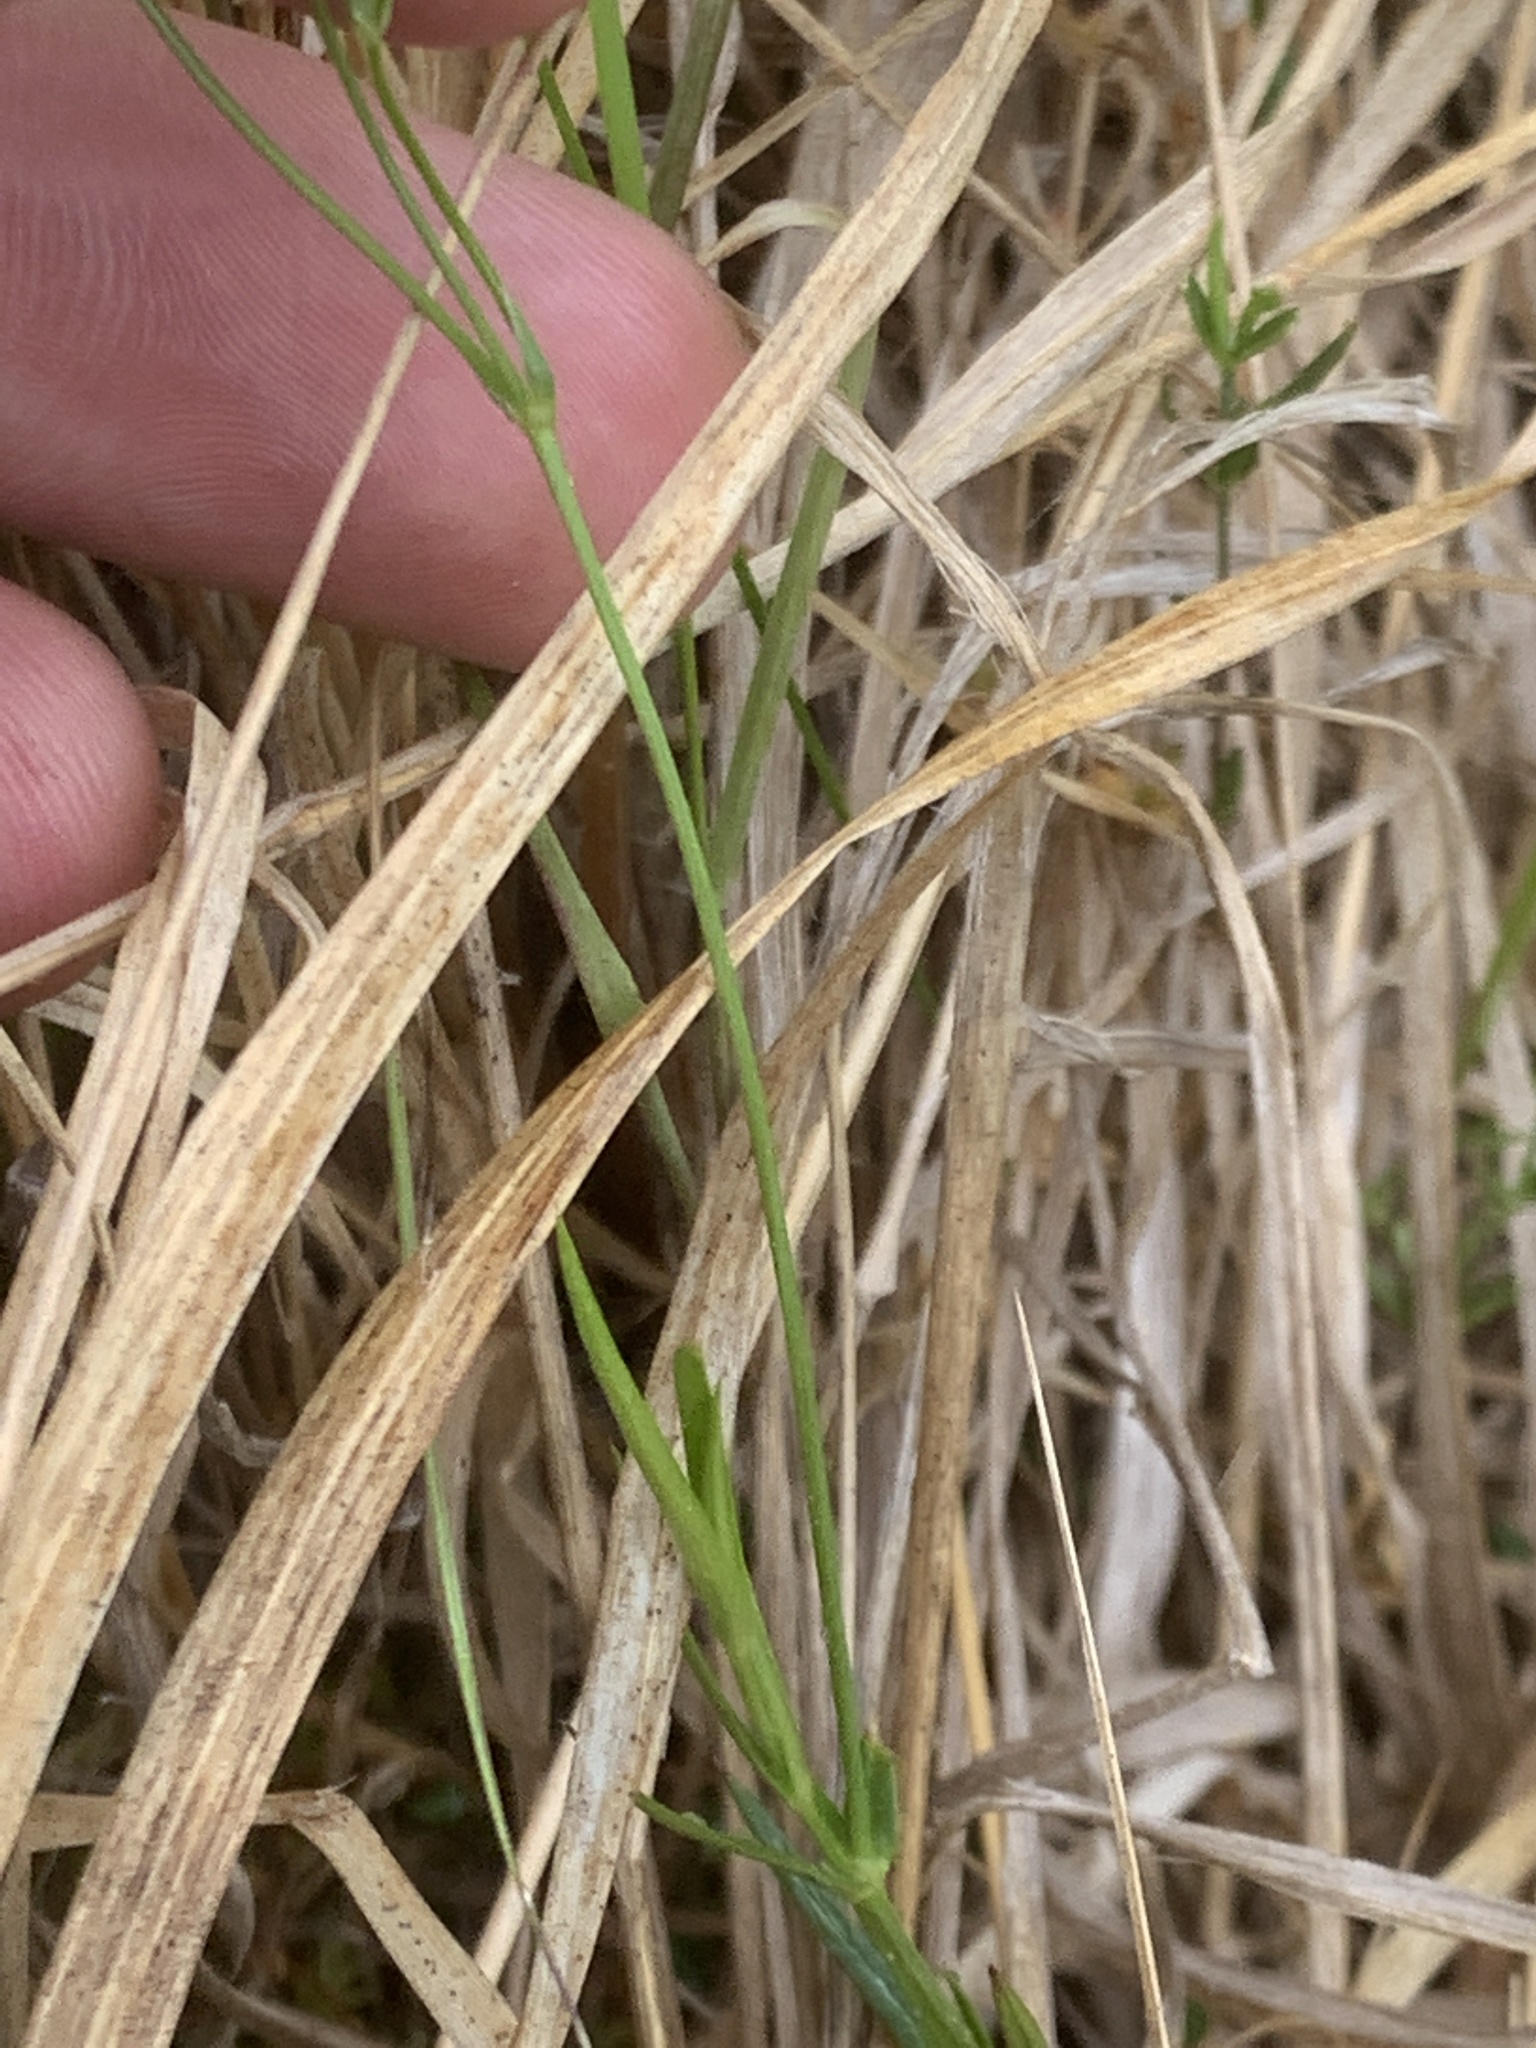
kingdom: Plantae
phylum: Tracheophyta
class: Magnoliopsida
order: Caryophyllales
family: Caryophyllaceae
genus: Stellaria
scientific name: Stellaria longipes
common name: Goldie's starwort
